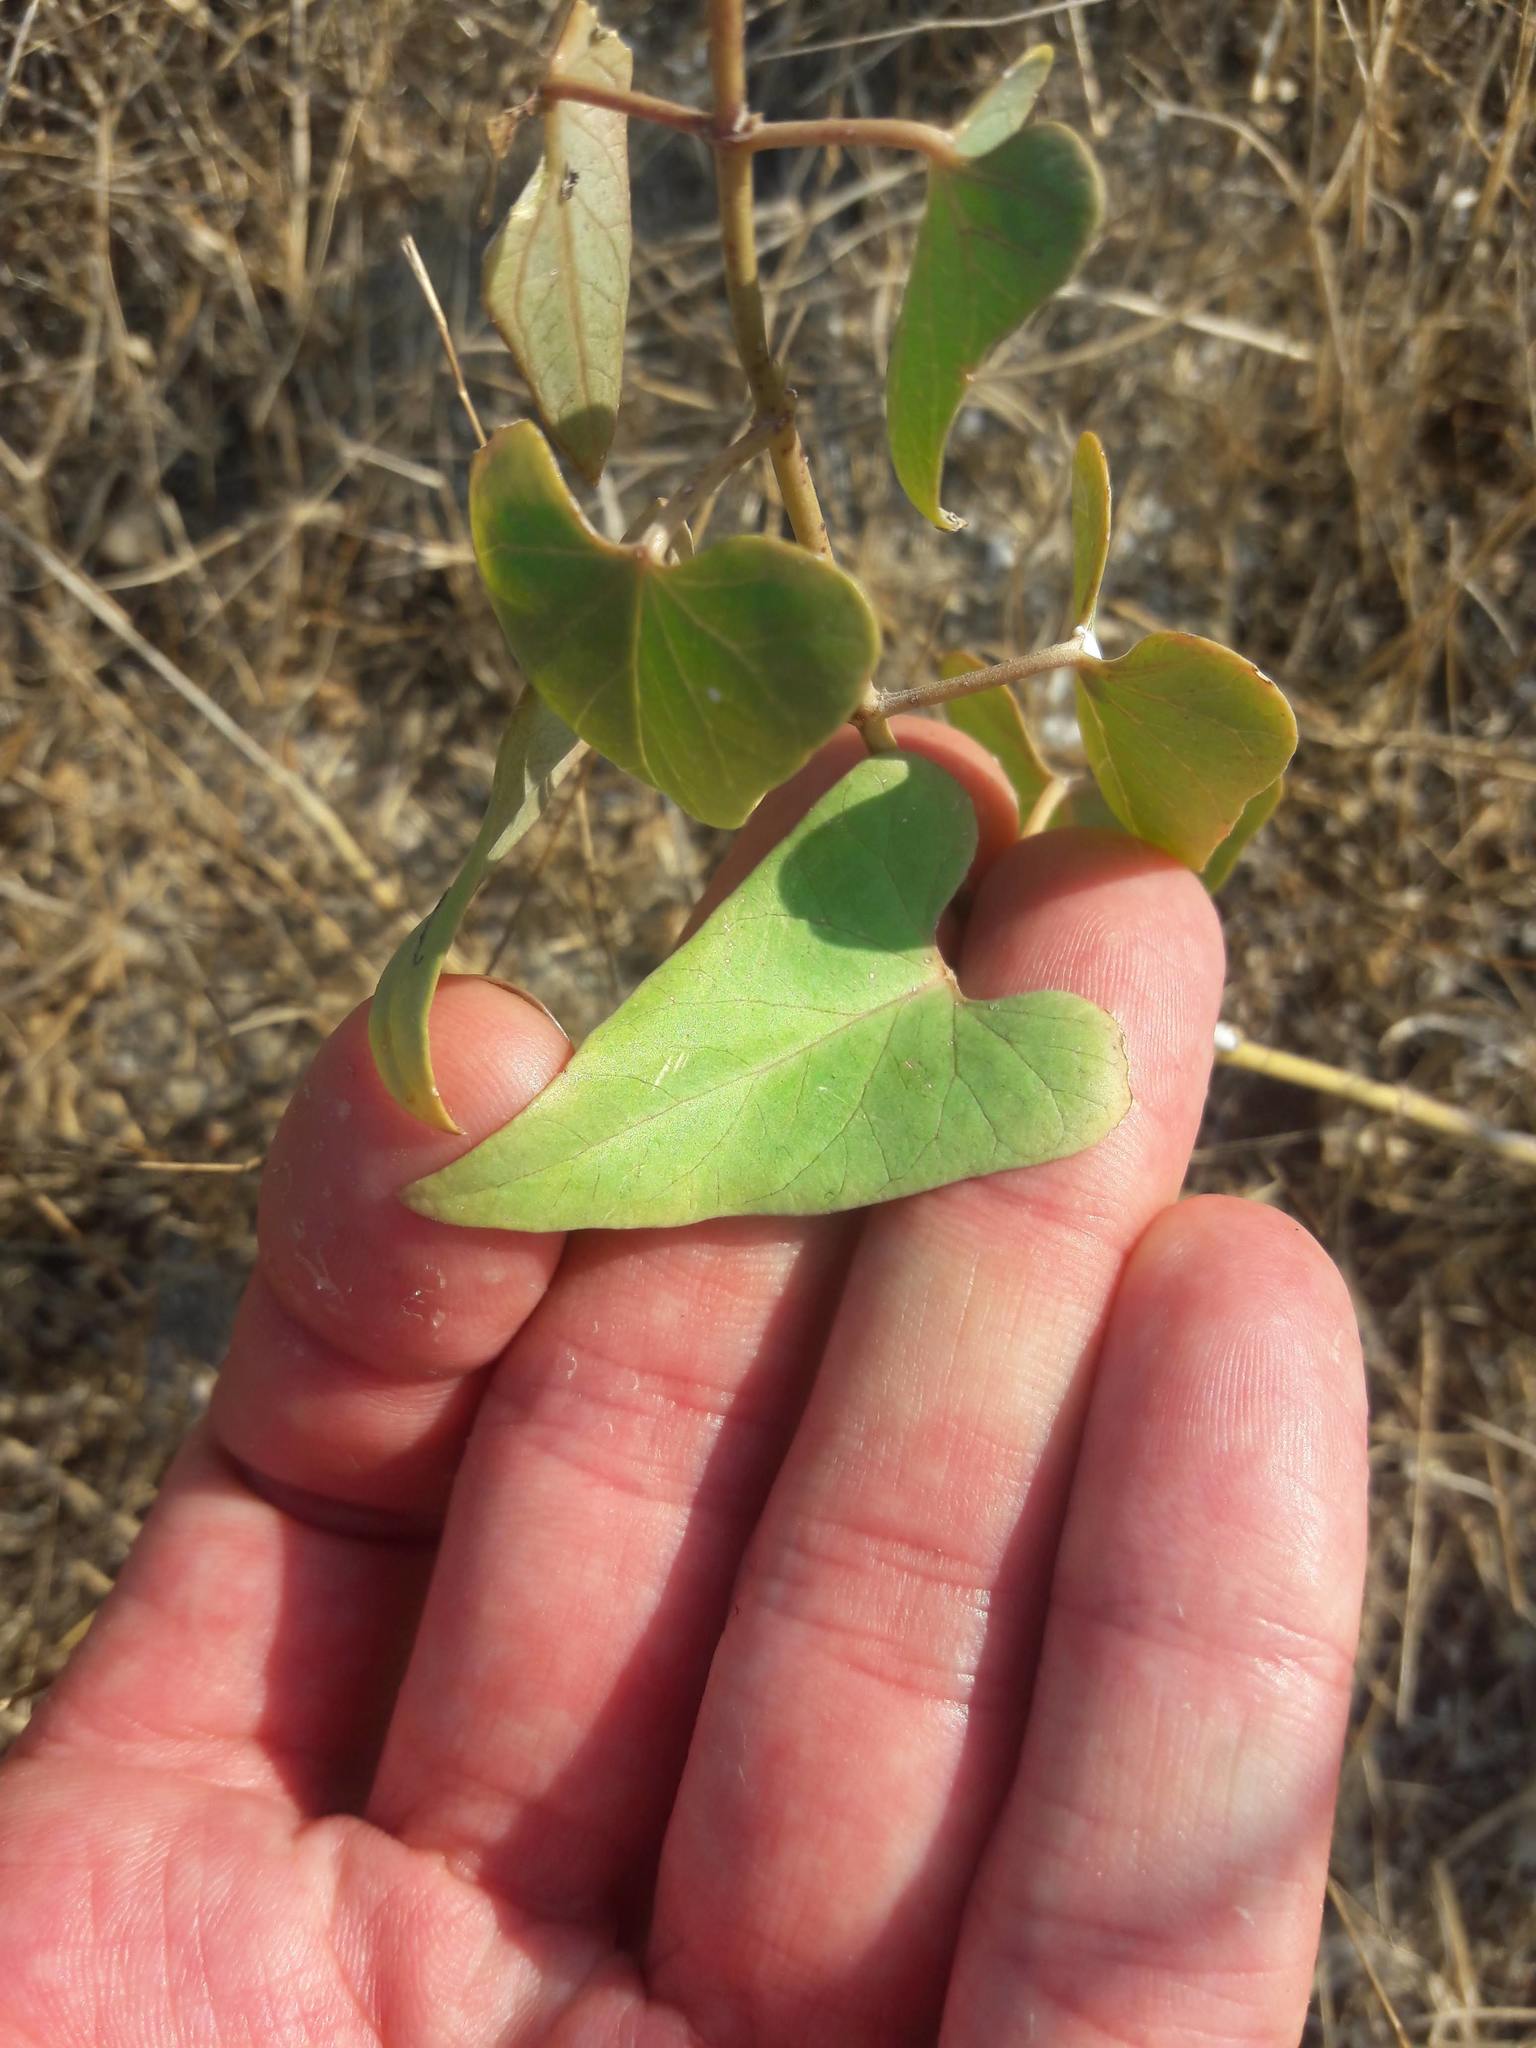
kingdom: Plantae
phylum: Tracheophyta
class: Magnoliopsida
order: Gentianales
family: Apocynaceae
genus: Cynanchum
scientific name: Cynanchum acutum
